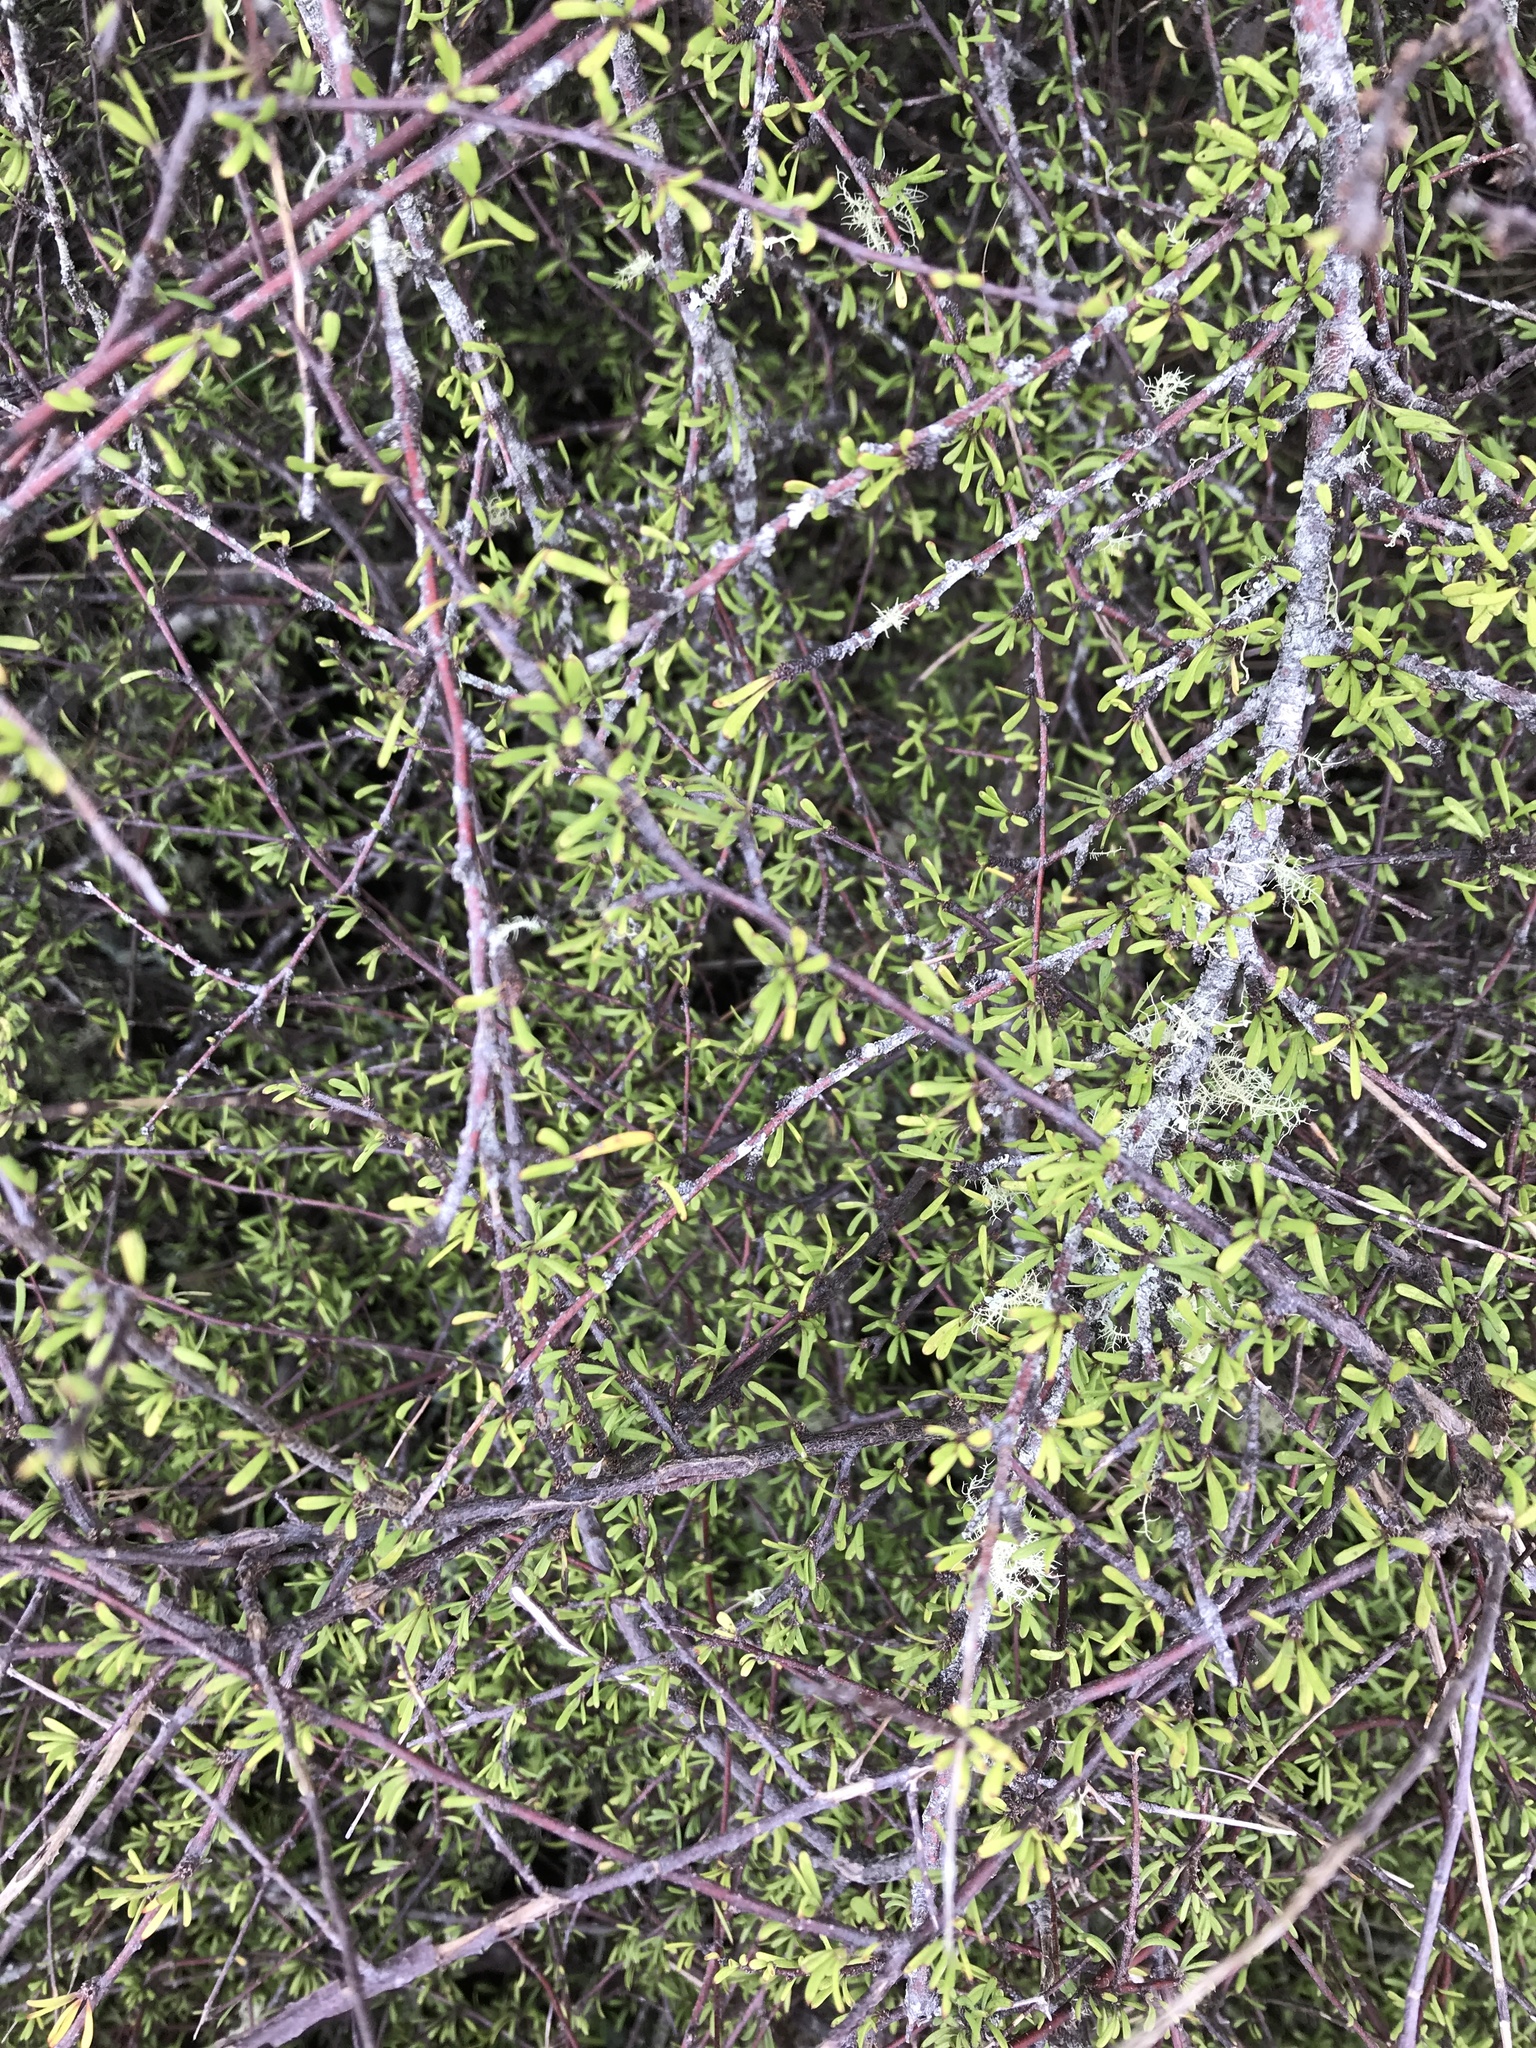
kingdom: Plantae
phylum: Tracheophyta
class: Magnoliopsida
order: Malvales
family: Malvaceae
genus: Plagianthus
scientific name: Plagianthus divaricatus
